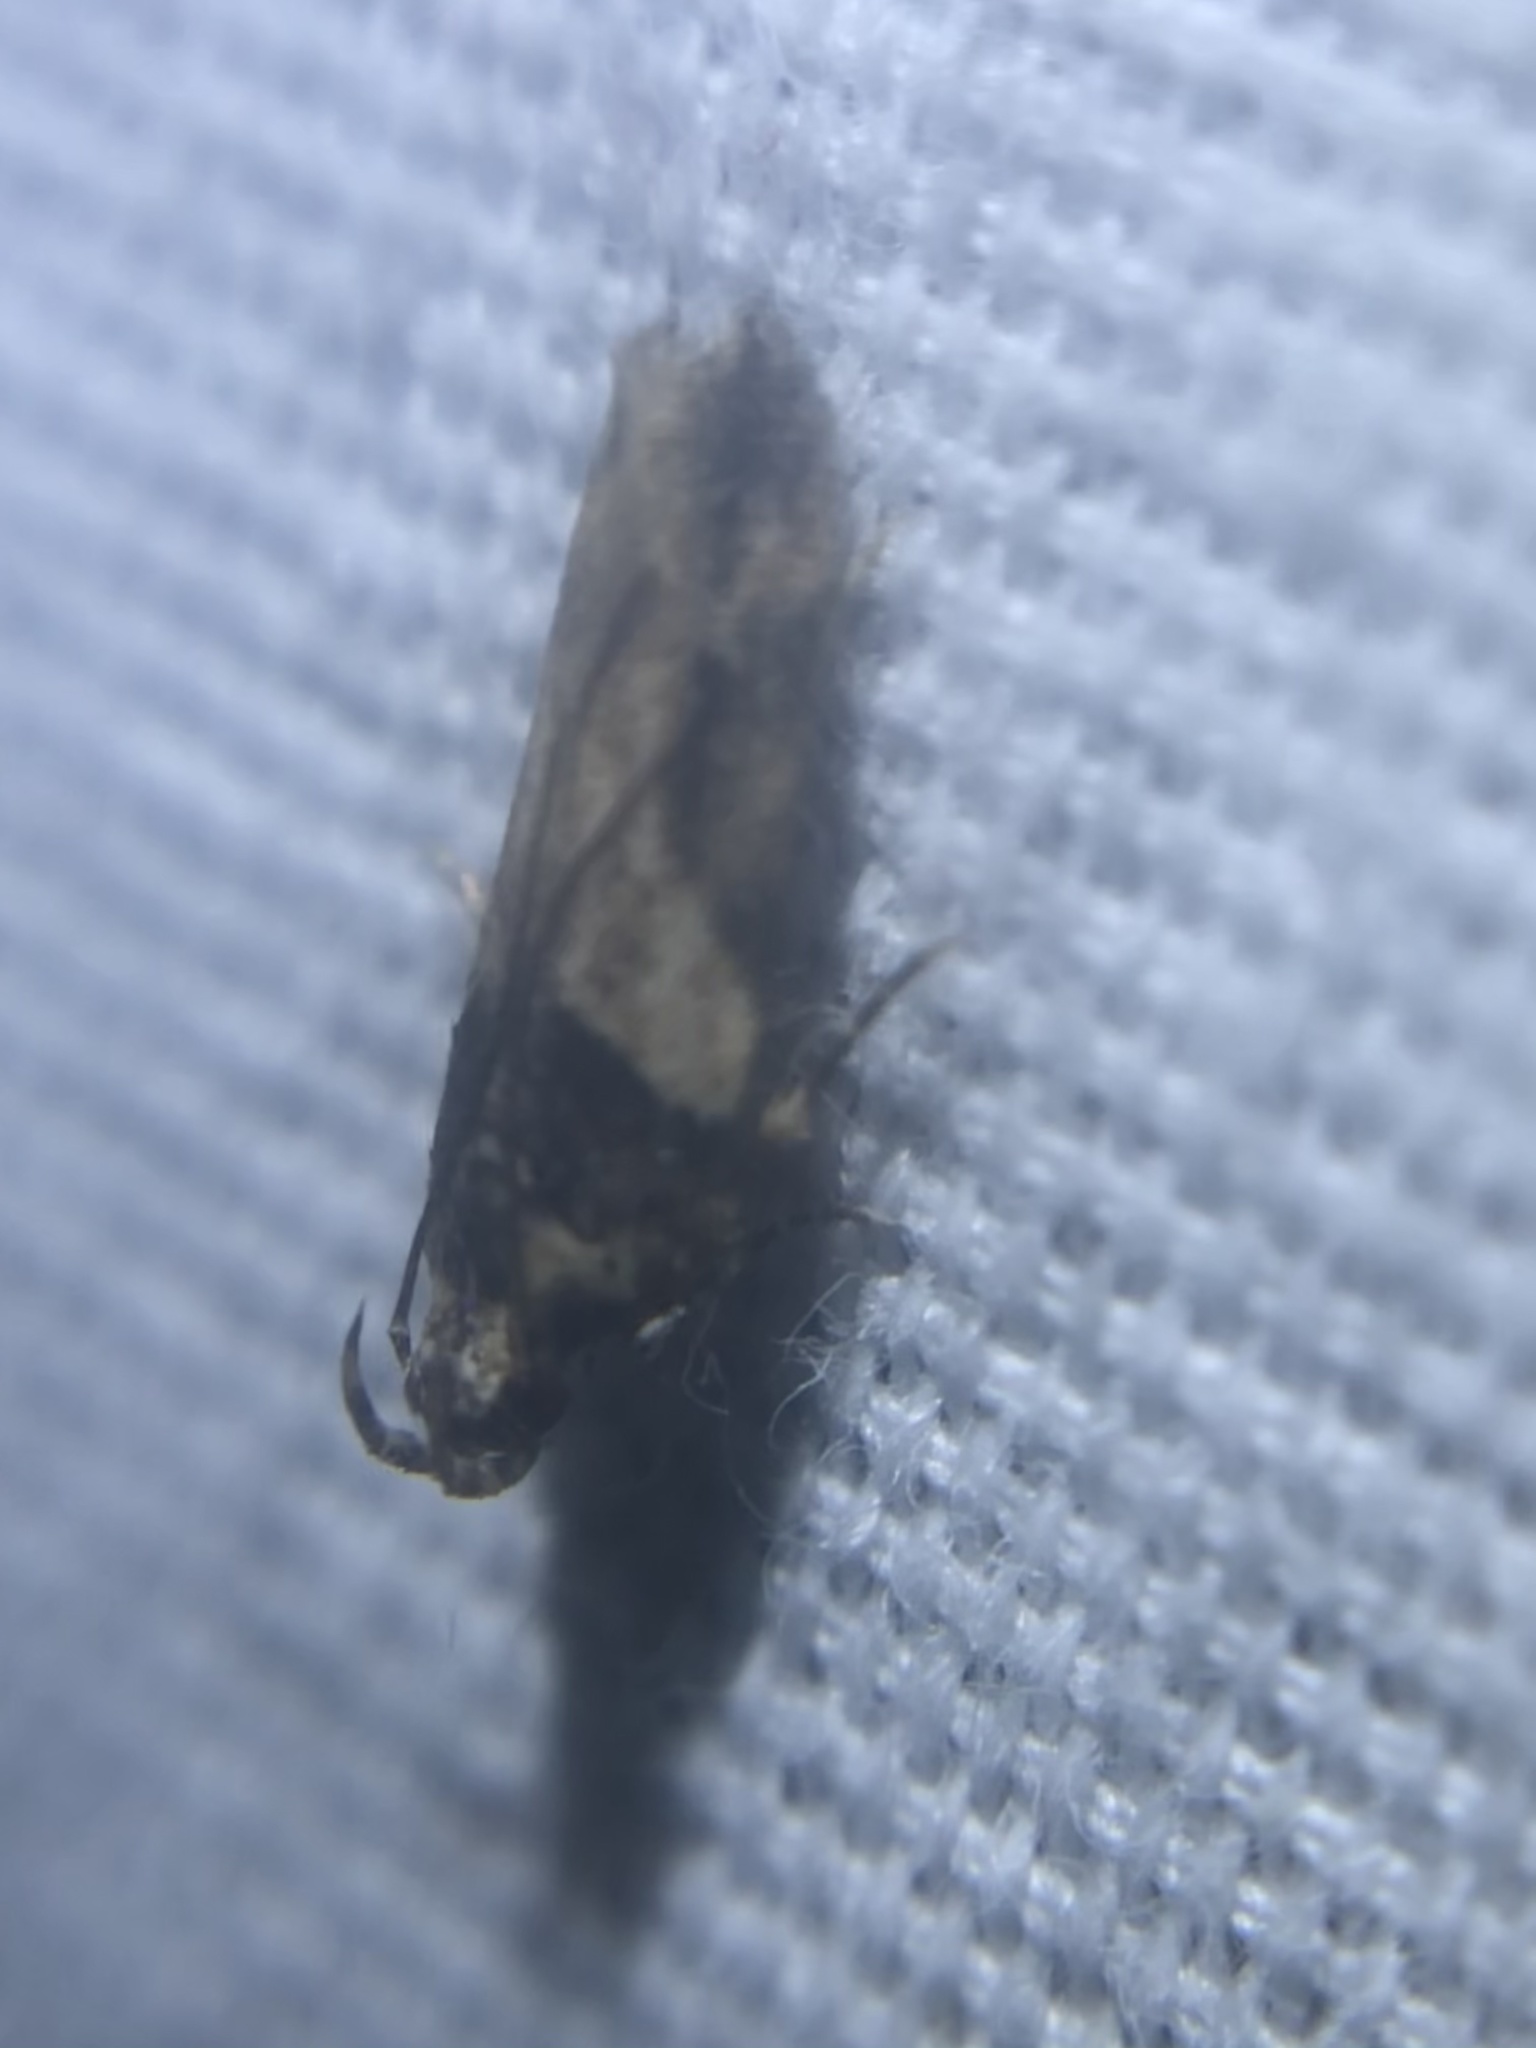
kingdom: Animalia
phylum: Arthropoda
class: Insecta
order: Lepidoptera
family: Gelechiidae
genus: Friseria
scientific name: Friseria acaciella
